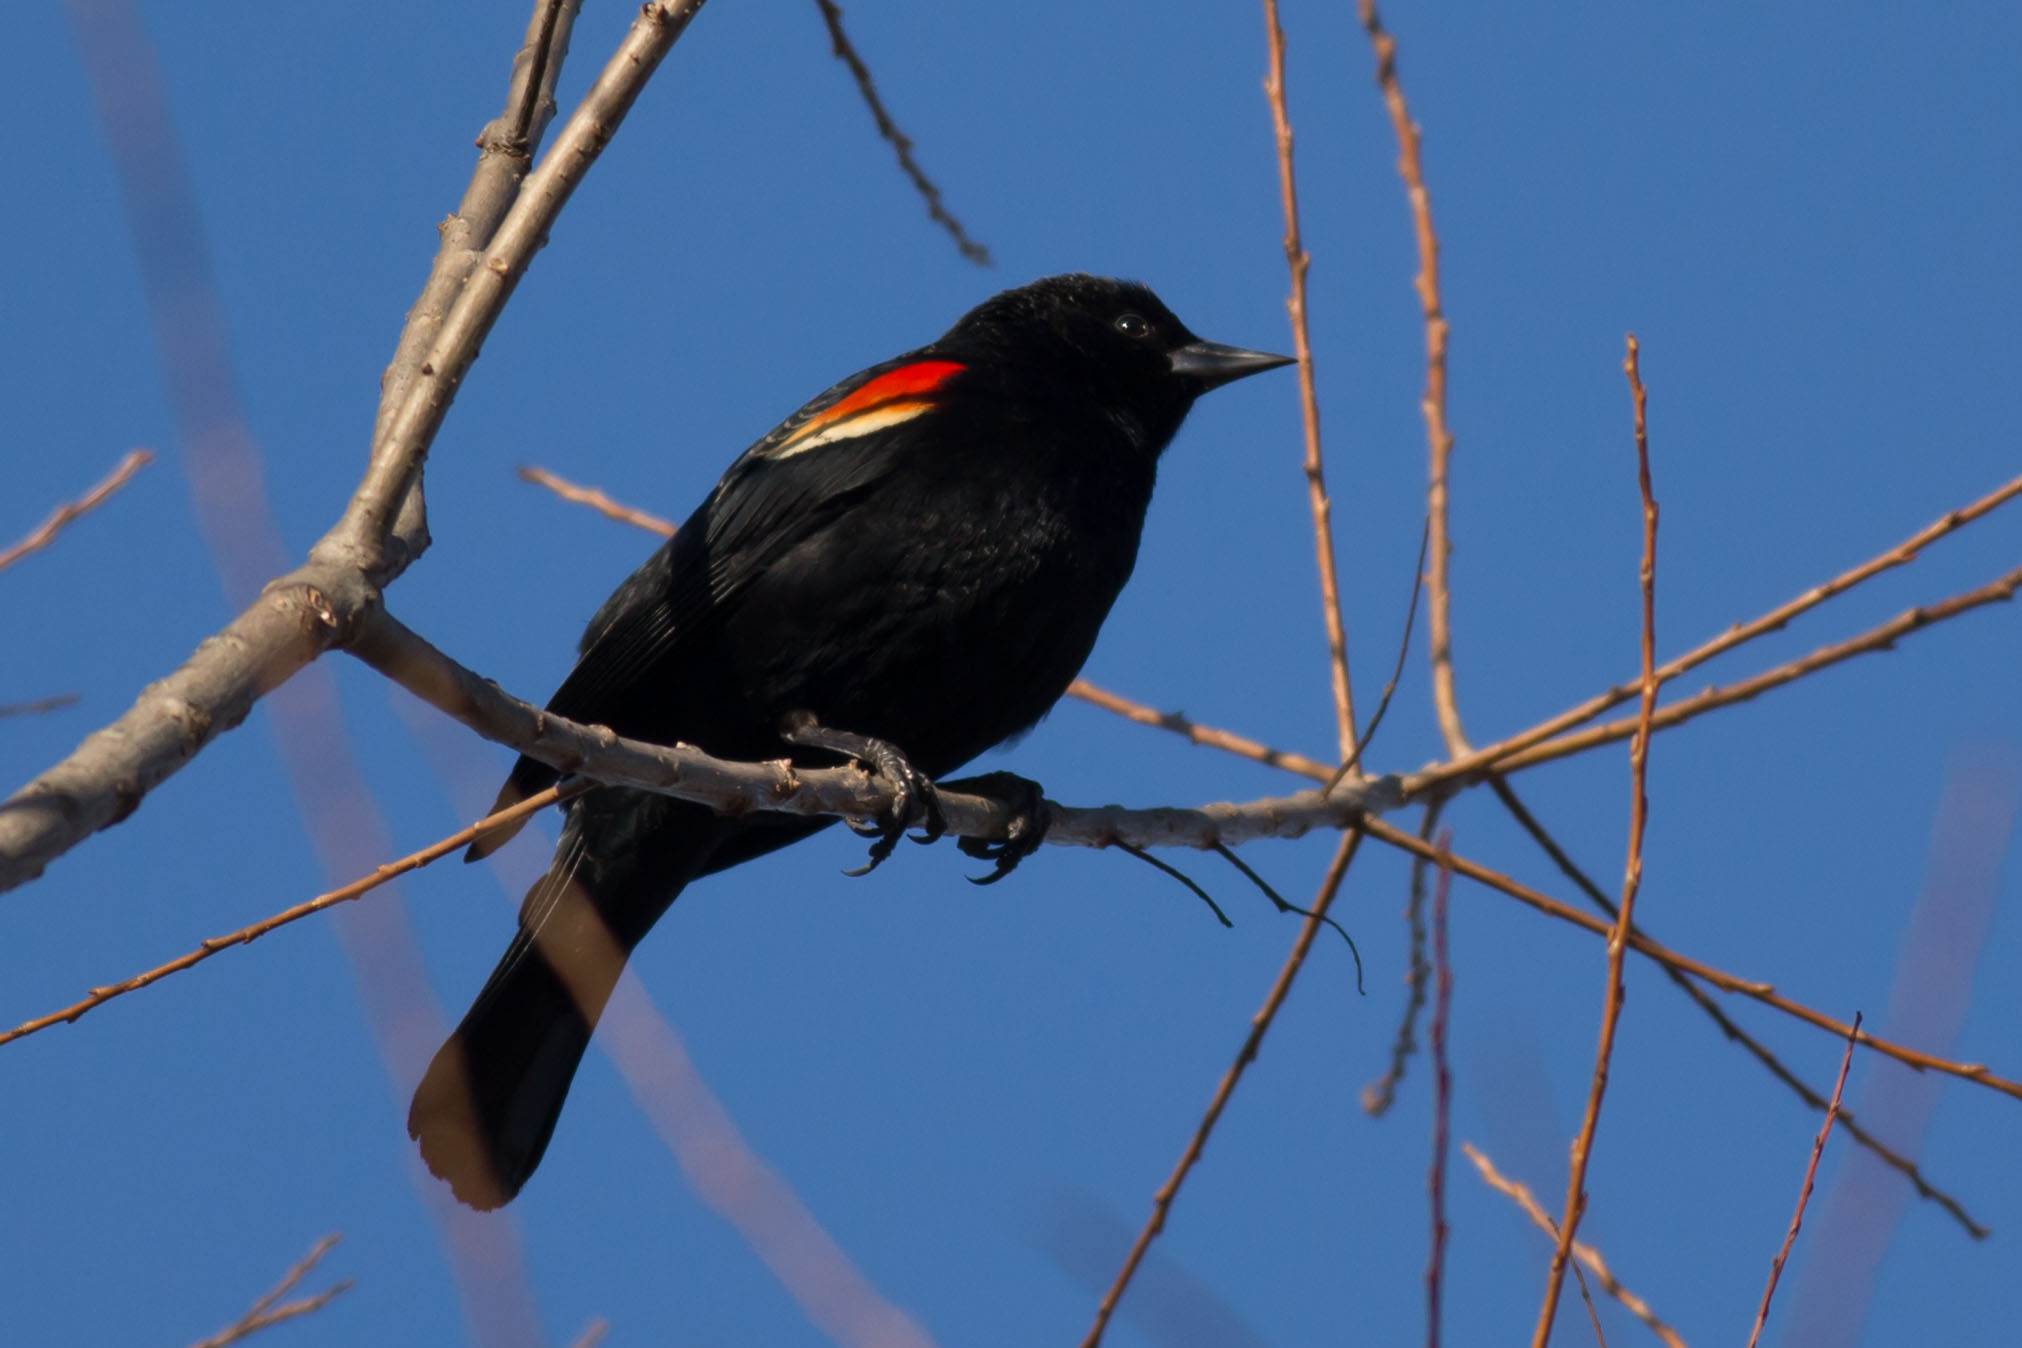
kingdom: Animalia
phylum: Chordata
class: Aves
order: Passeriformes
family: Icteridae
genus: Agelaius
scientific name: Agelaius phoeniceus
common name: Red-winged blackbird
